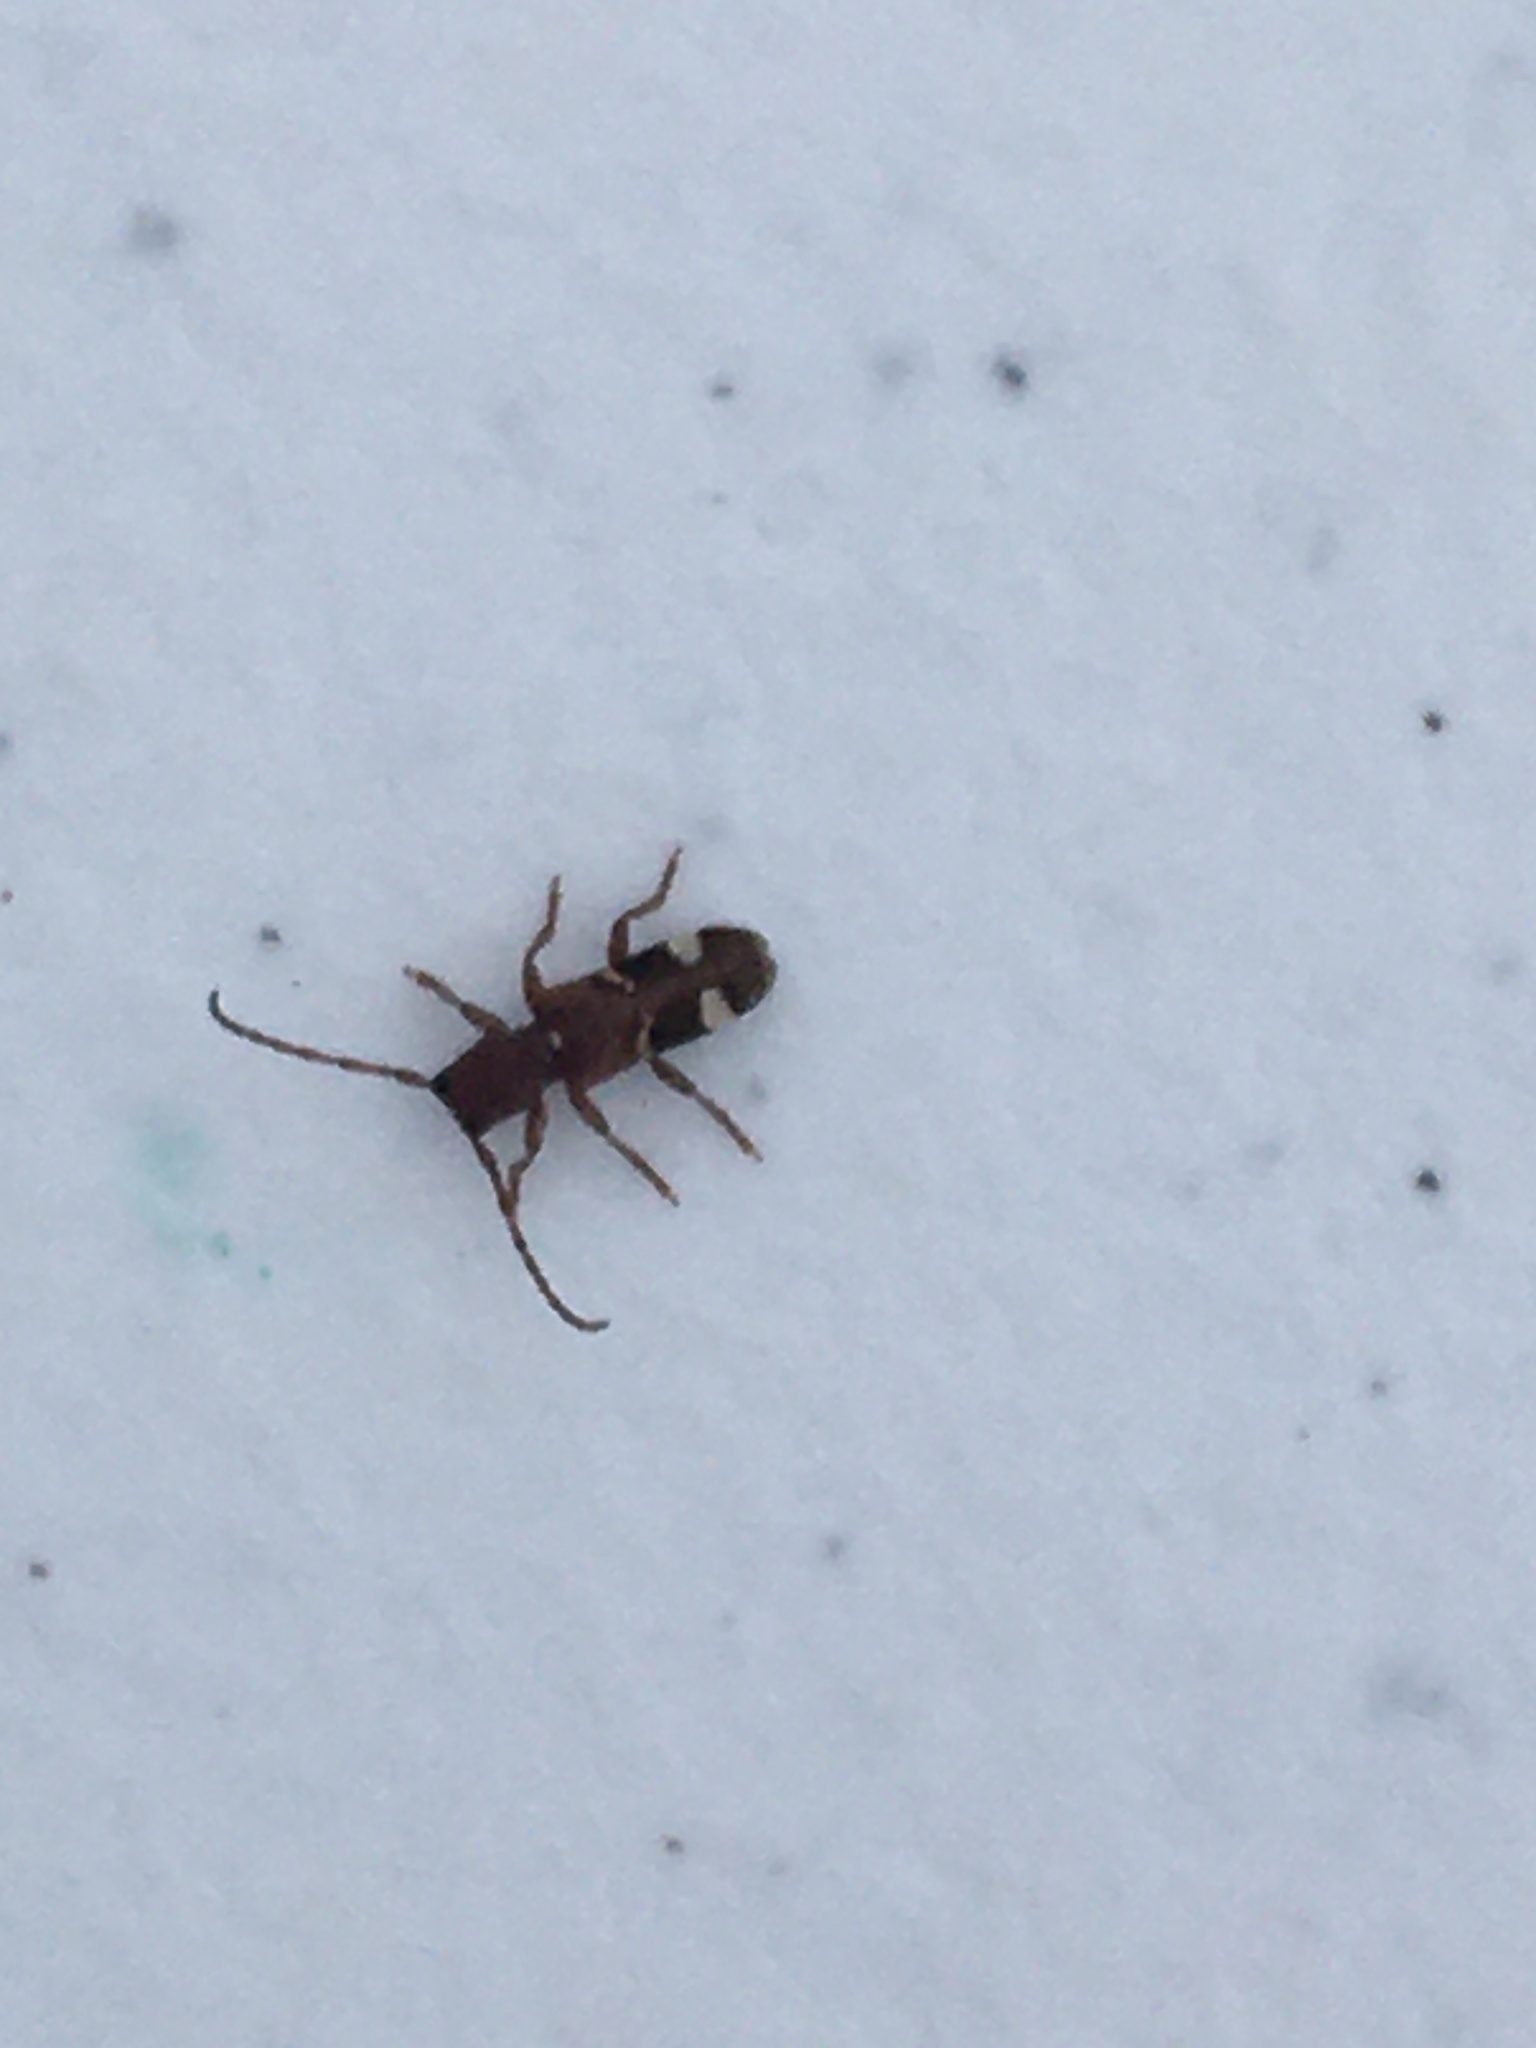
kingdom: Animalia
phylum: Arthropoda
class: Insecta
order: Coleoptera
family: Cerambycidae
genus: Psenocerus
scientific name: Psenocerus supernotatus
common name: Currant-tip borer
